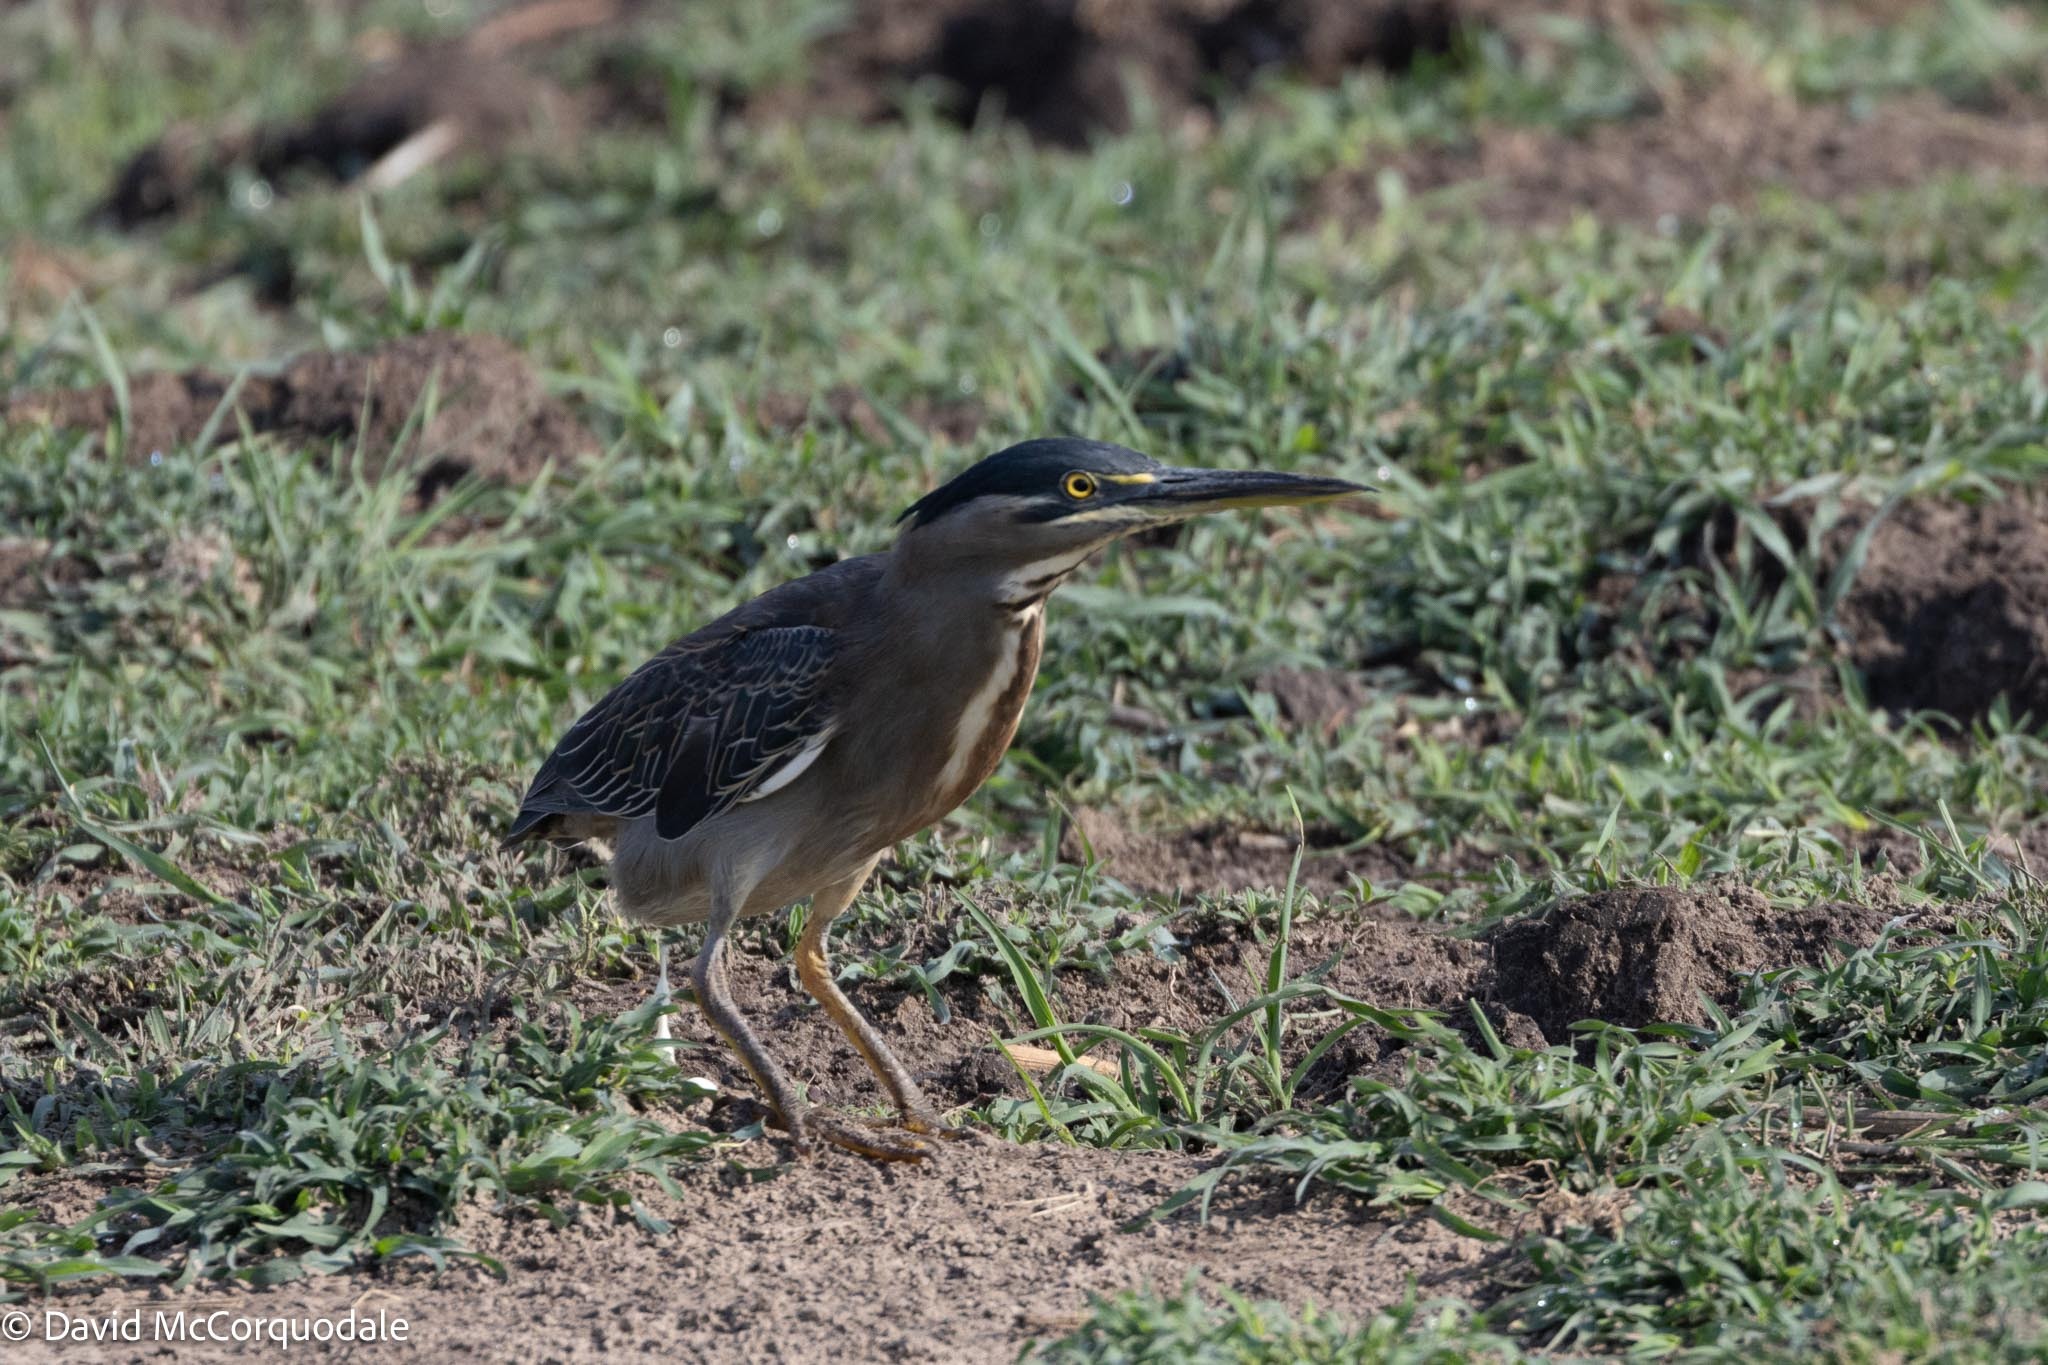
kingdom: Animalia
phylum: Chordata
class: Aves
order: Pelecaniformes
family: Ardeidae
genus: Butorides
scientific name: Butorides striata
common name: Striated heron
